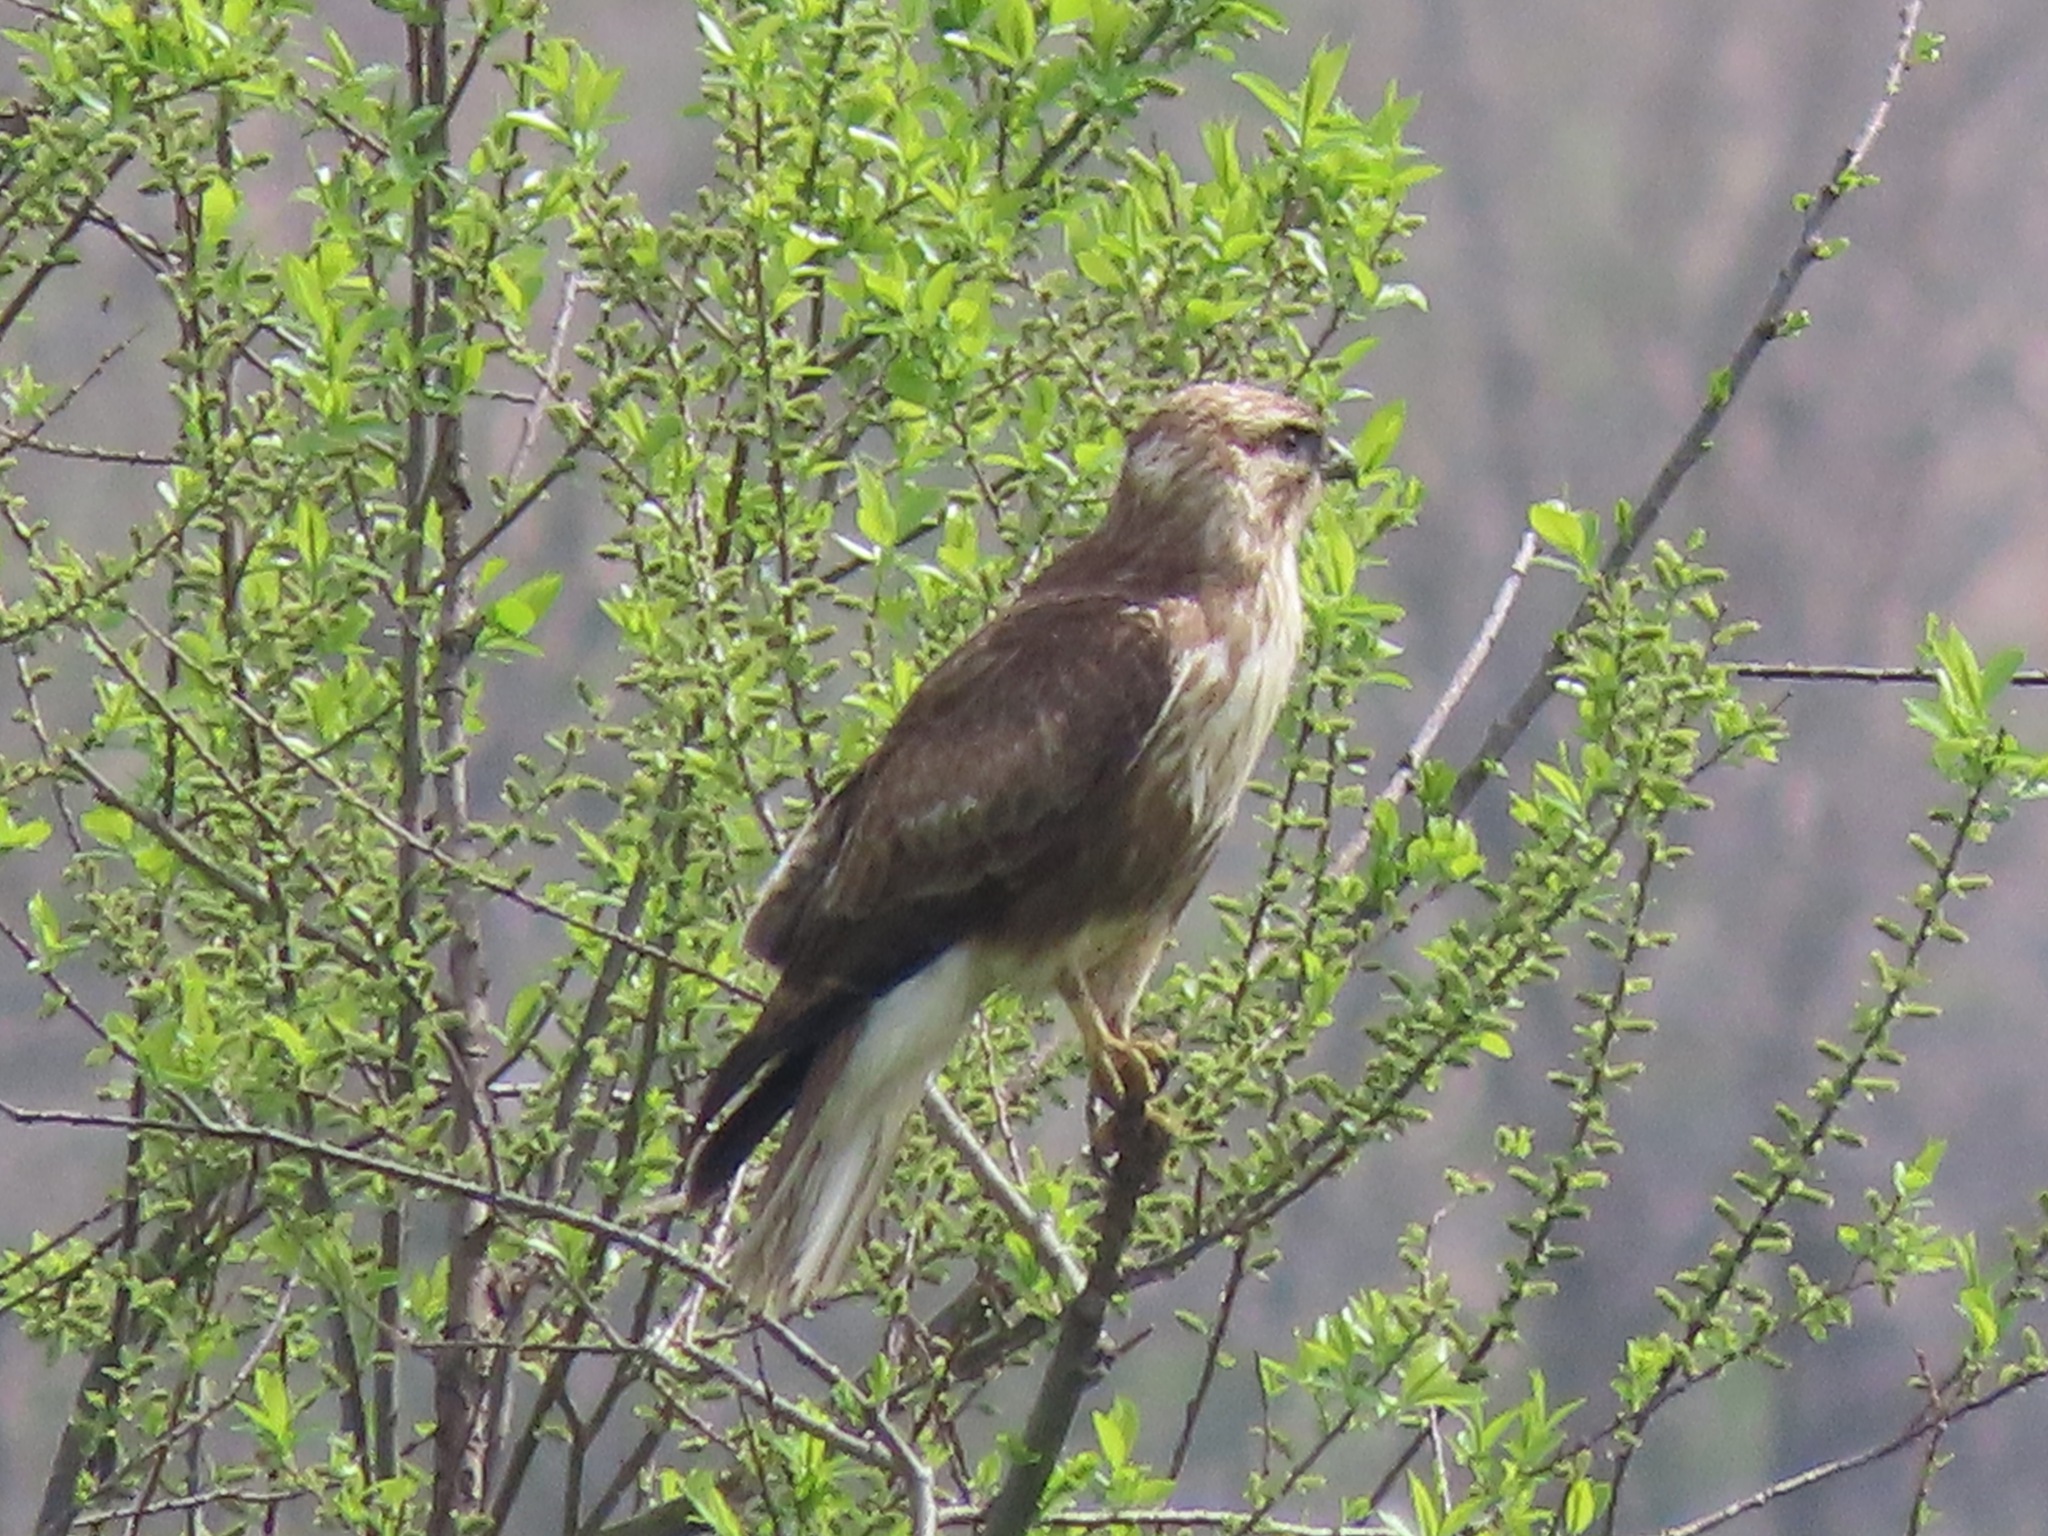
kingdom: Animalia
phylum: Chordata
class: Aves
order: Accipitriformes
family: Accipitridae
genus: Buteo
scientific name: Buteo japonicus
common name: Eastern buzzard
